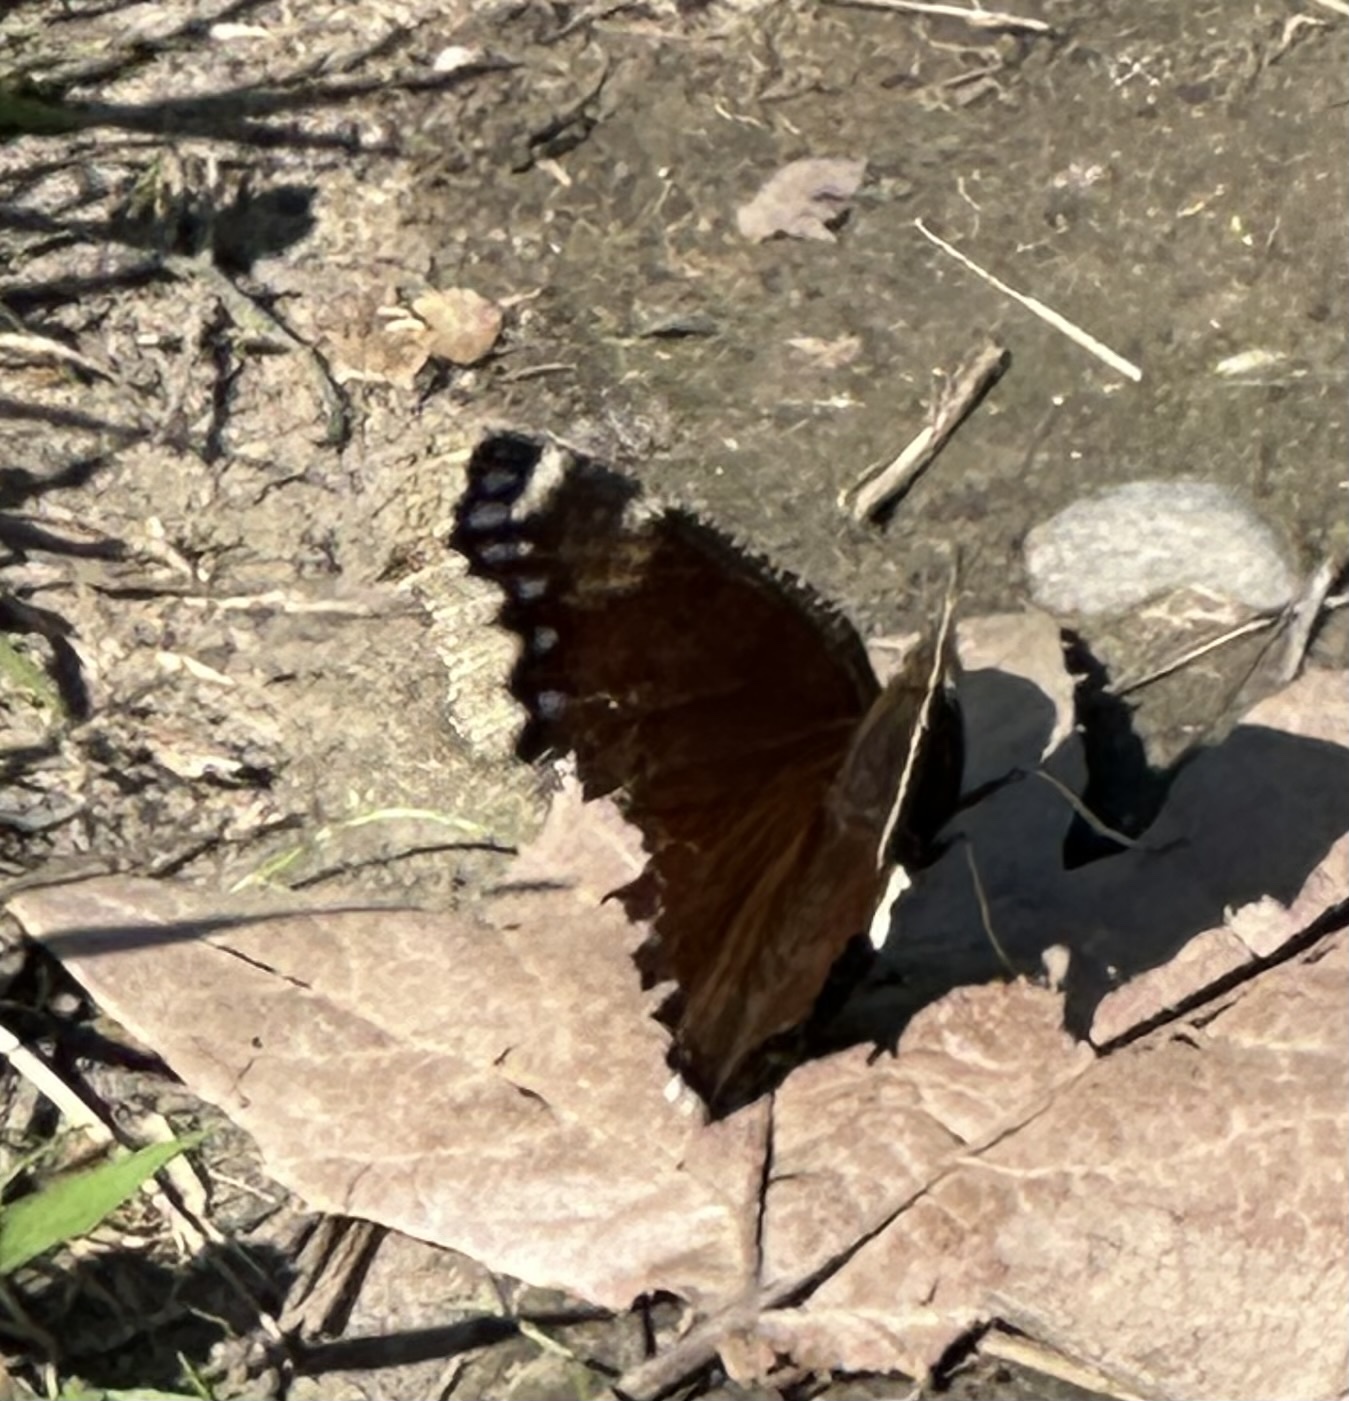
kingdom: Animalia
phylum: Arthropoda
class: Insecta
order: Lepidoptera
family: Nymphalidae
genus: Nymphalis
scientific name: Nymphalis antiopa
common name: Camberwell beauty
